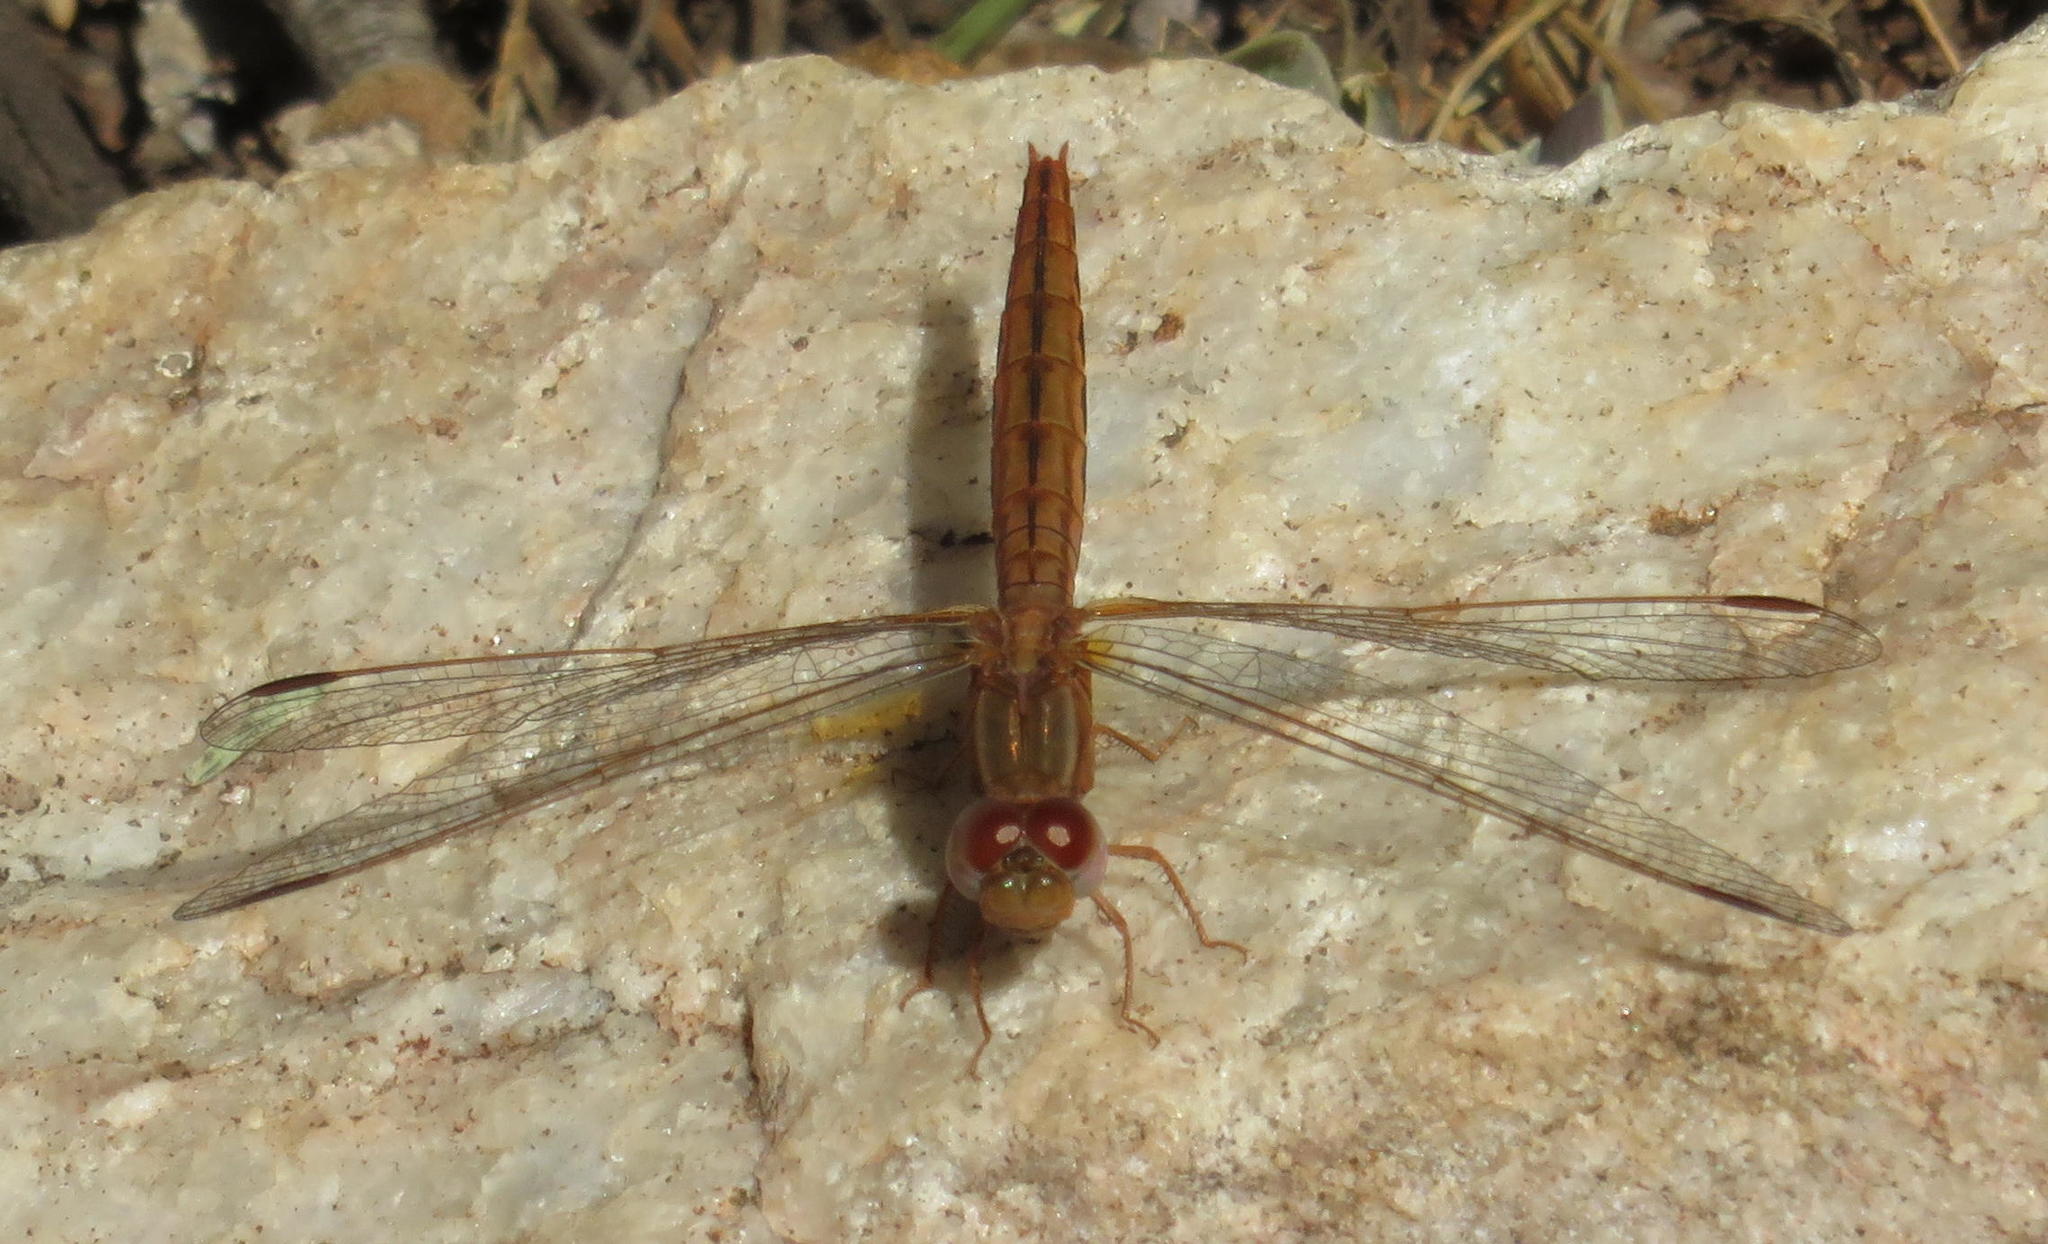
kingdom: Animalia
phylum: Arthropoda
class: Insecta
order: Odonata
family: Libellulidae
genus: Crocothemis
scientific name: Crocothemis sanguinolenta
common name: Little scarlet
